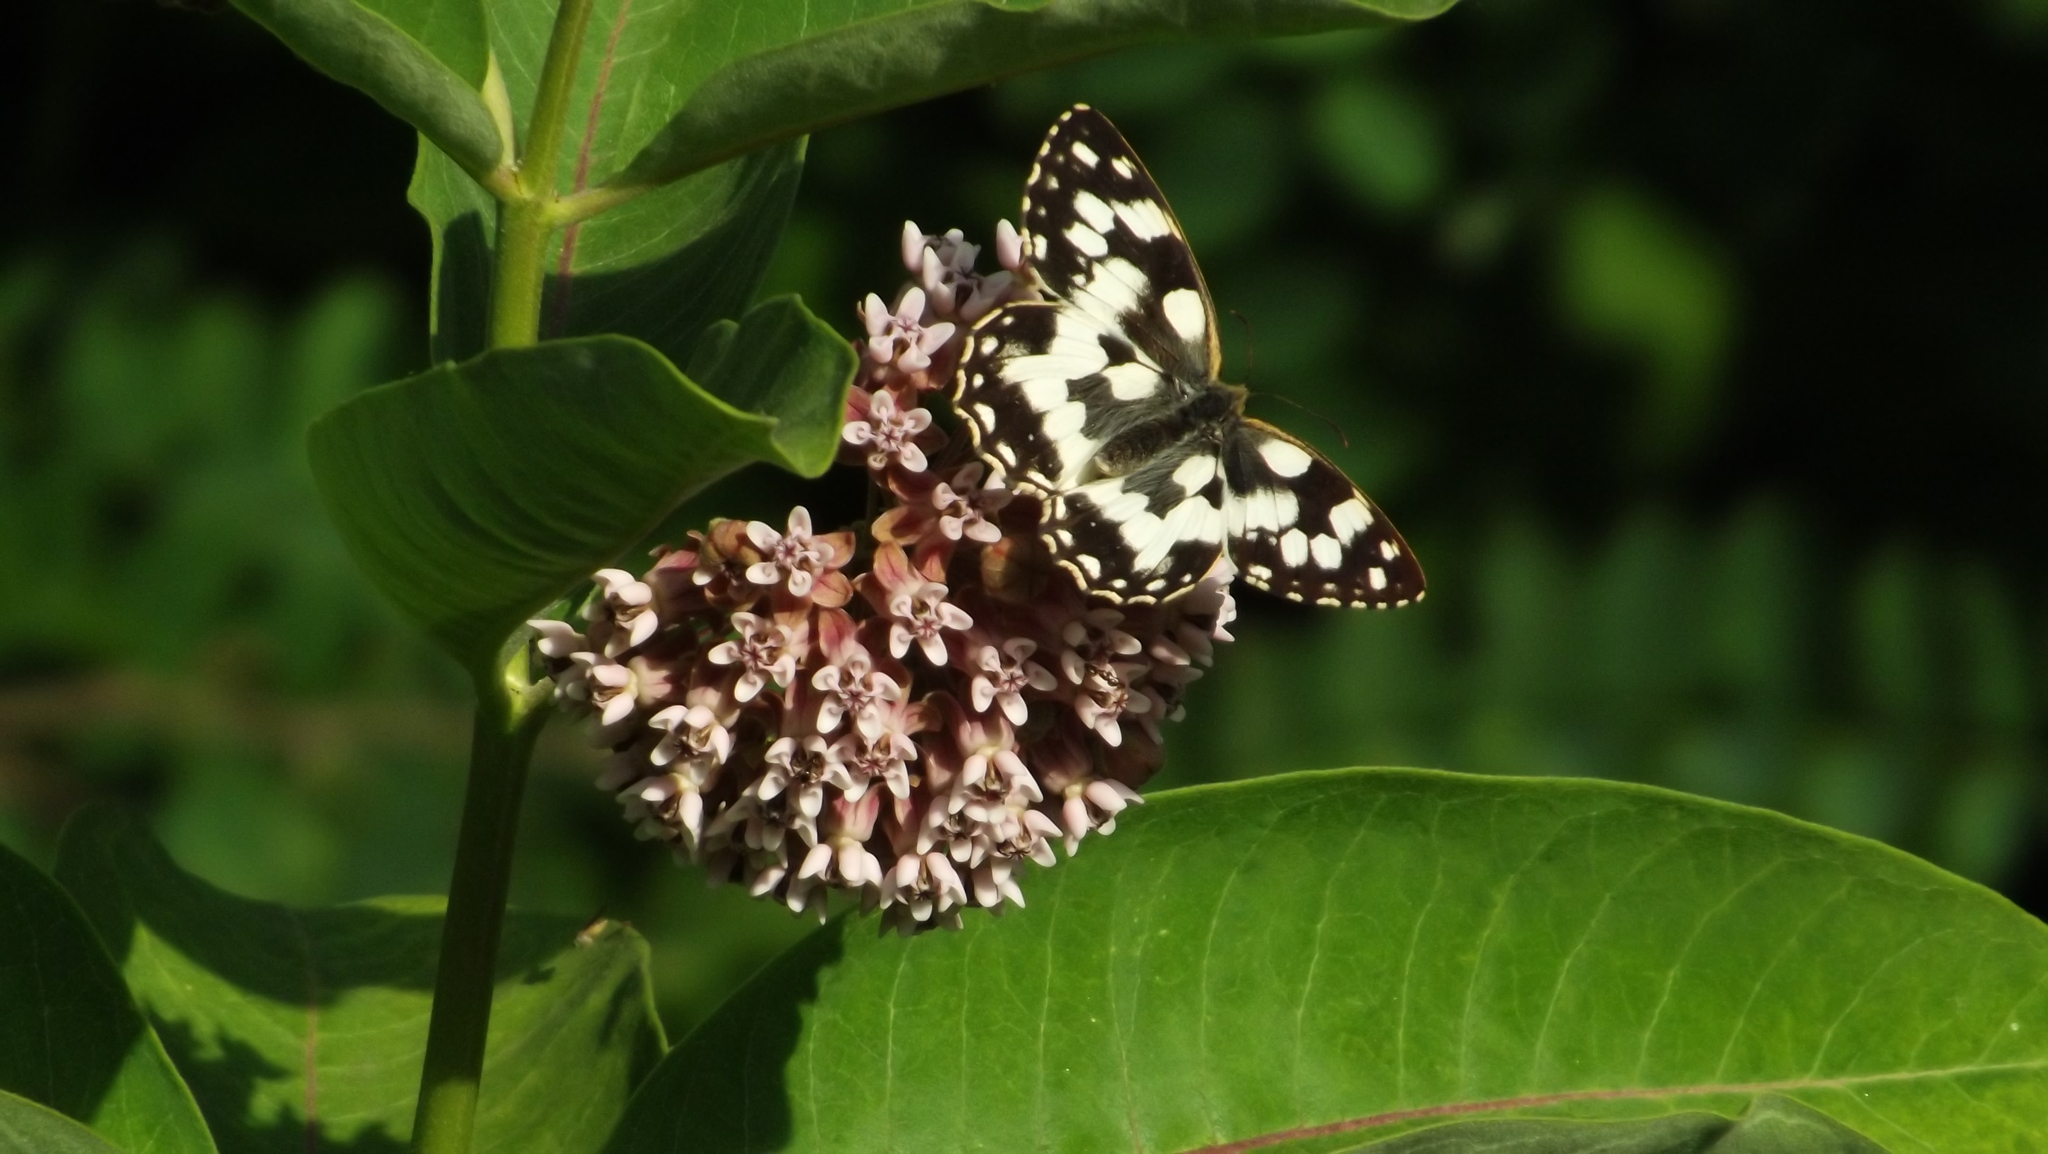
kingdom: Animalia
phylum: Arthropoda
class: Insecta
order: Lepidoptera
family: Nymphalidae
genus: Melanargia
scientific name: Melanargia galathea
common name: Marbled white
